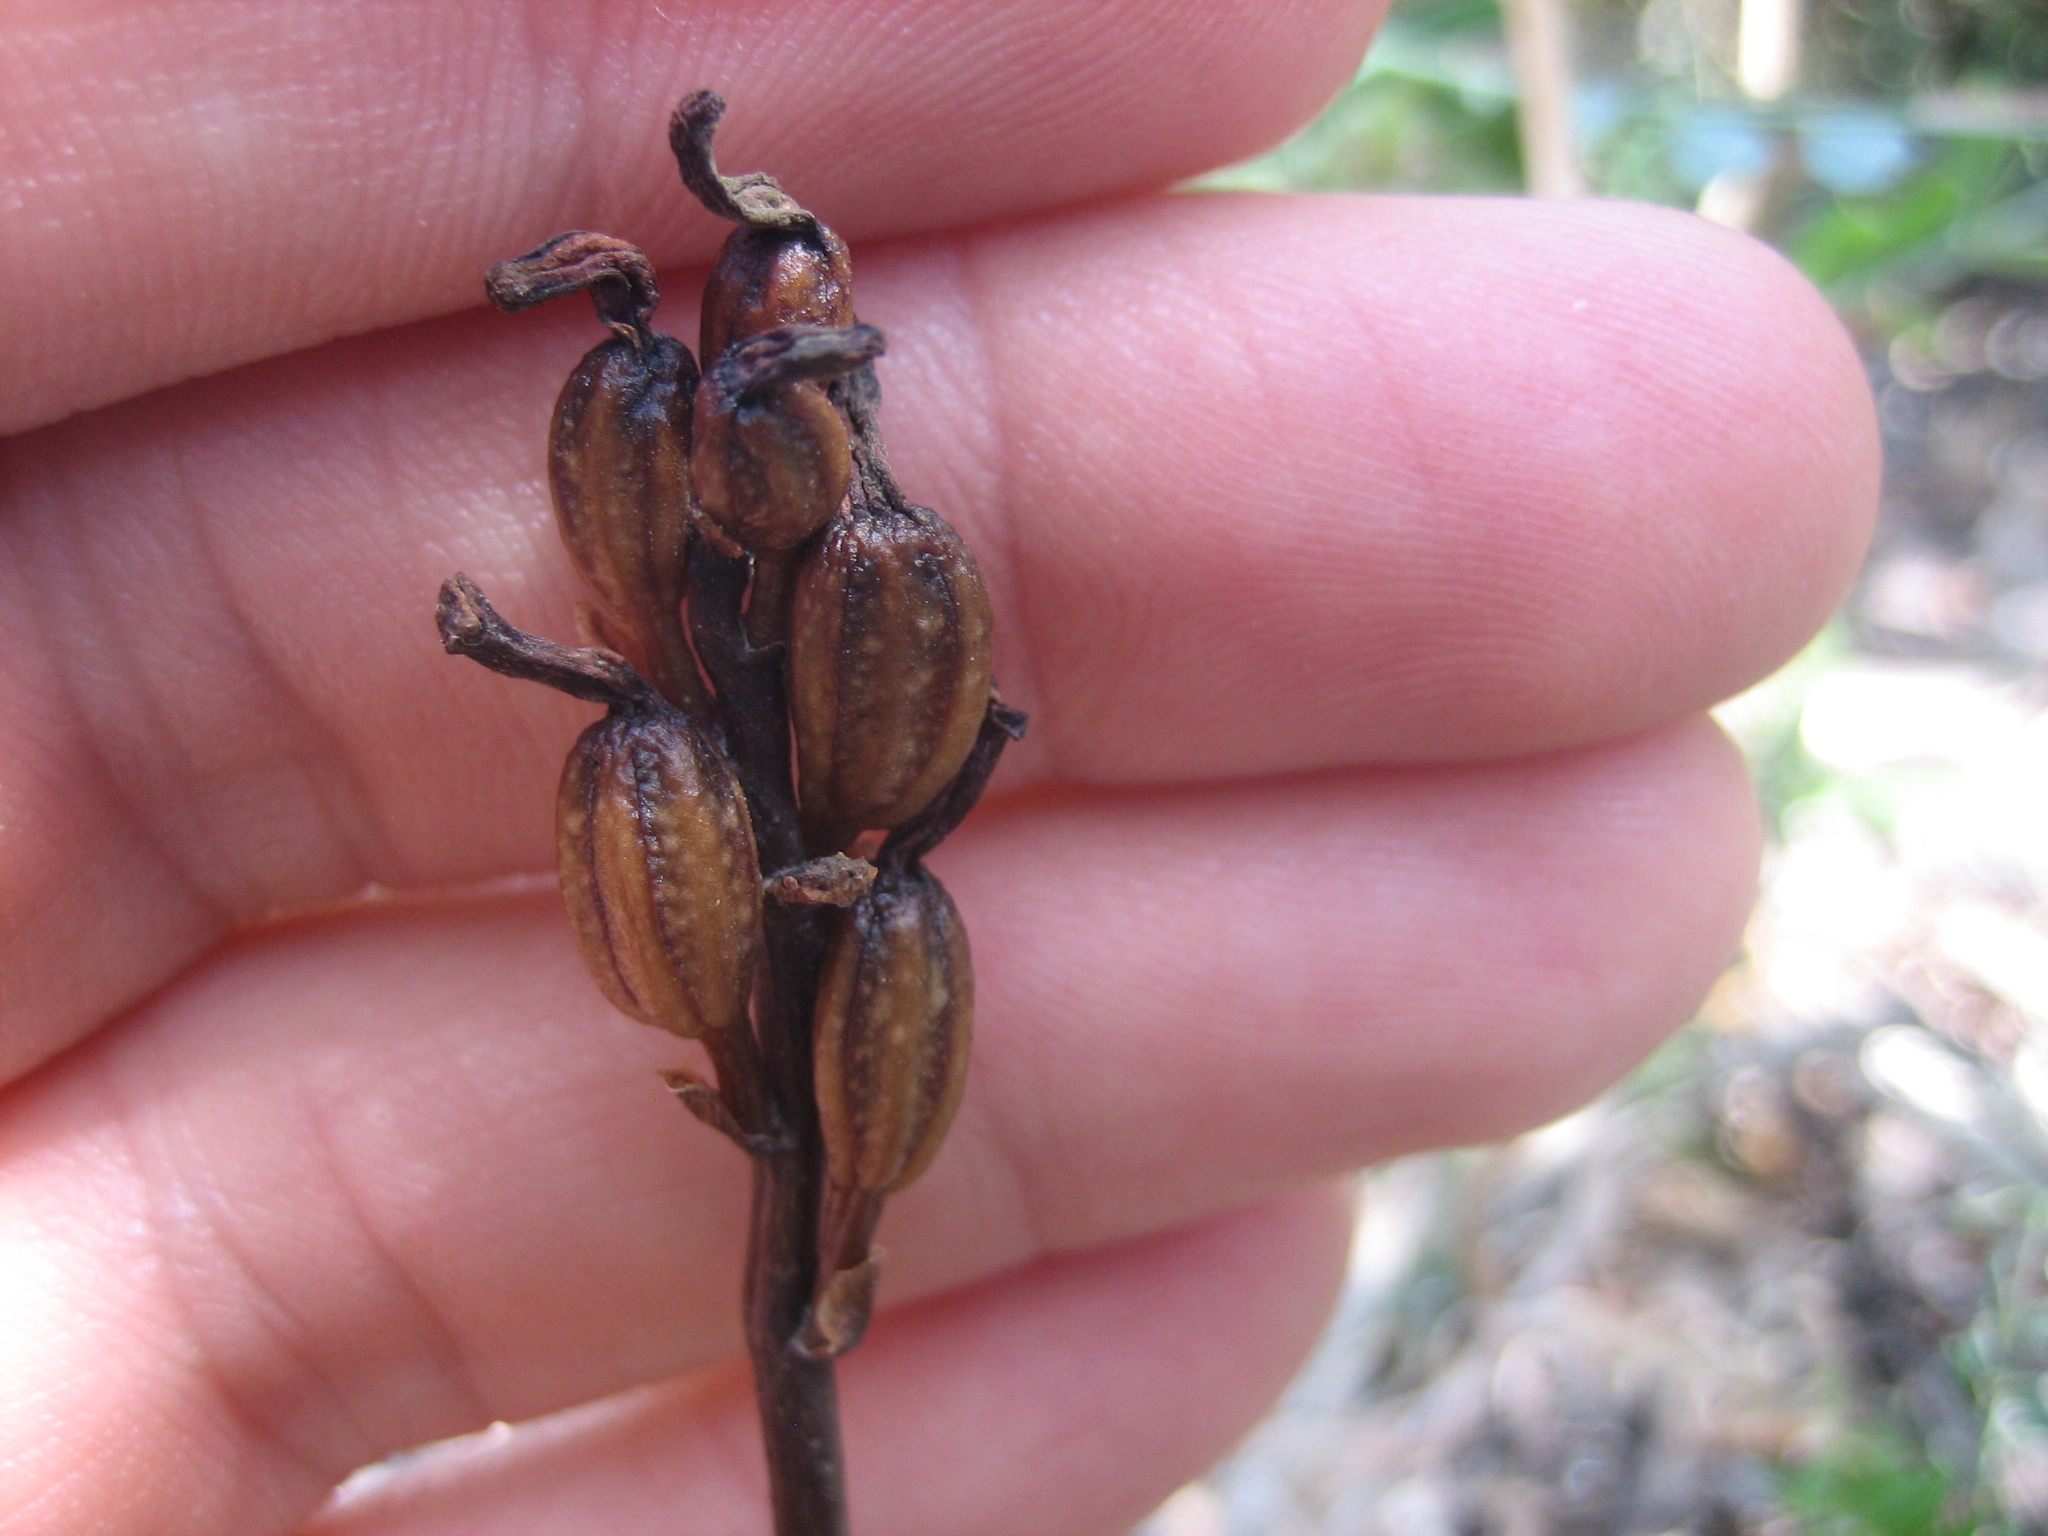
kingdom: Plantae
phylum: Tracheophyta
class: Liliopsida
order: Asparagales
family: Orchidaceae
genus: Gastrodia
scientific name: Gastrodia minor
